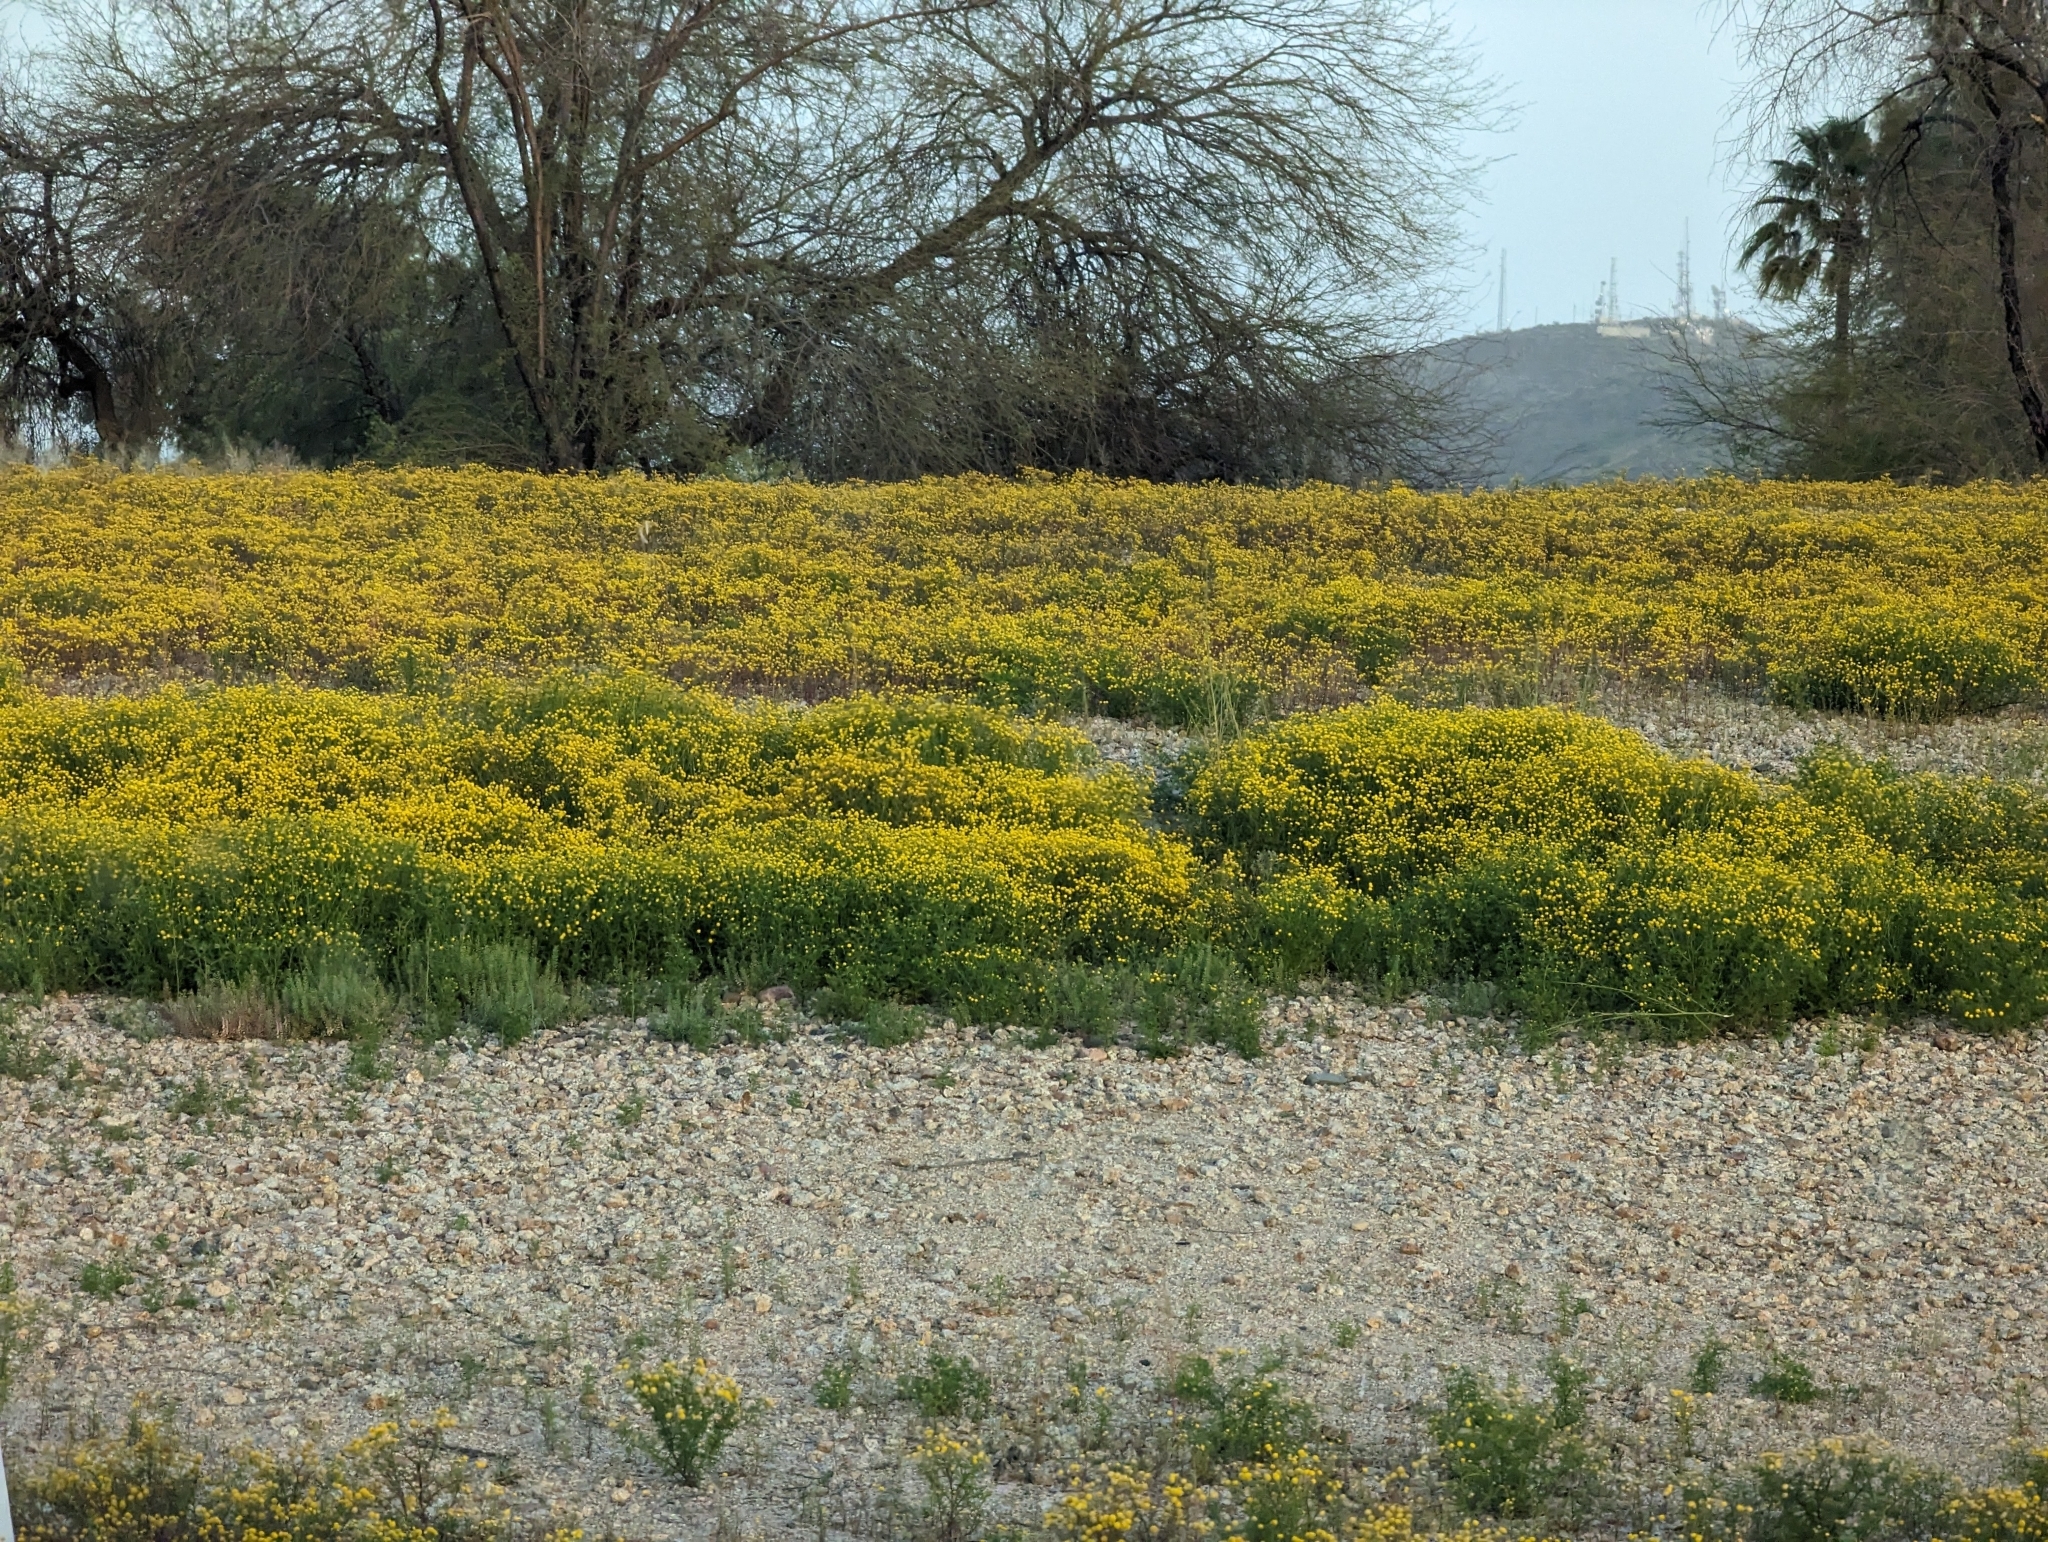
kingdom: Plantae
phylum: Tracheophyta
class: Magnoliopsida
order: Asterales
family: Asteraceae
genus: Oncosiphon
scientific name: Oncosiphon pilulifer
